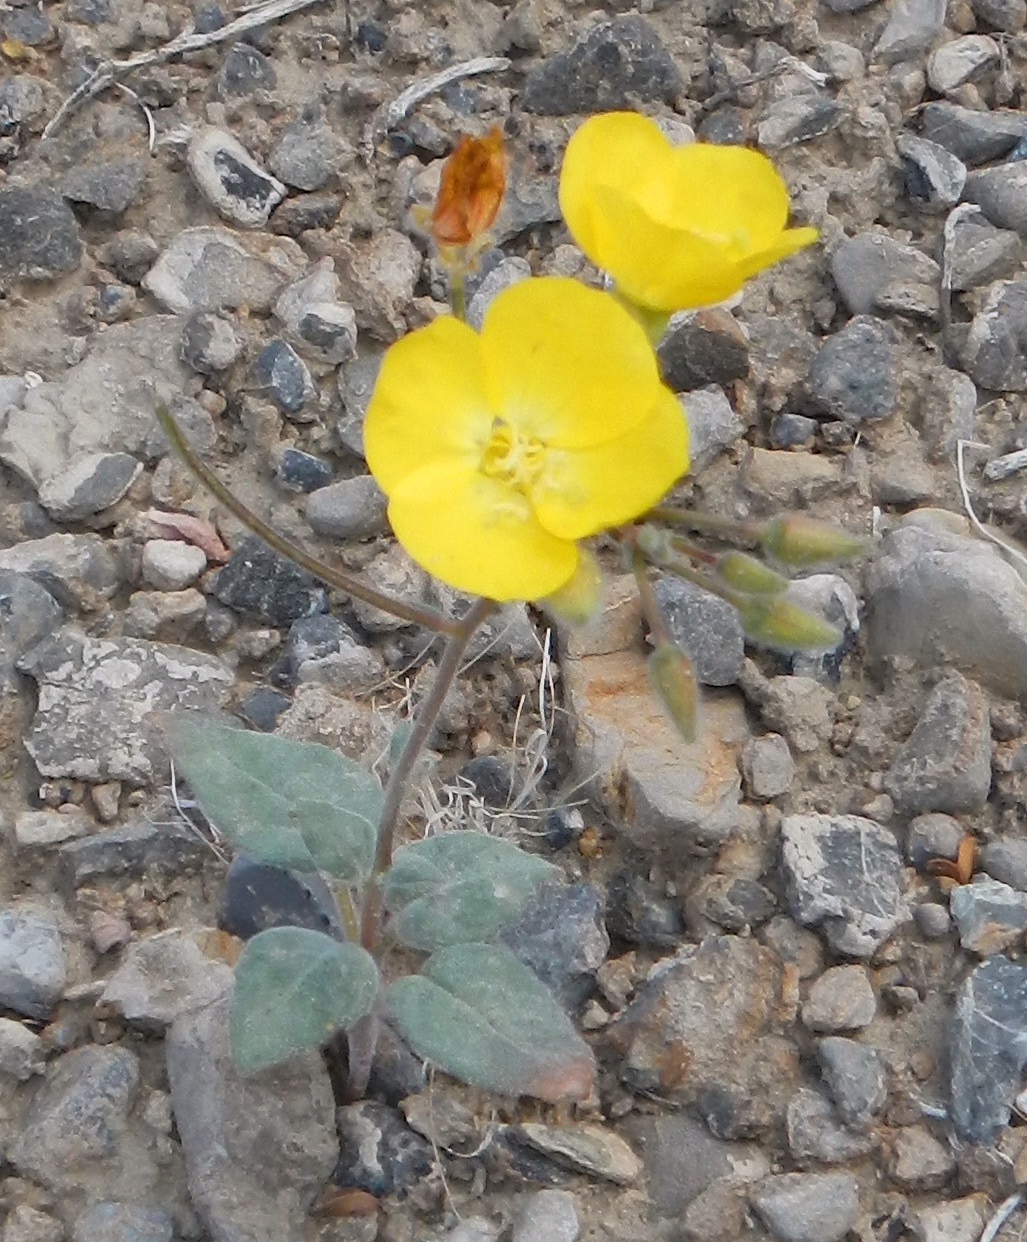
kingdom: Plantae
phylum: Tracheophyta
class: Magnoliopsida
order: Myrtales
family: Onagraceae
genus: Chylismia
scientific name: Chylismia brevipes
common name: Yellow cups
